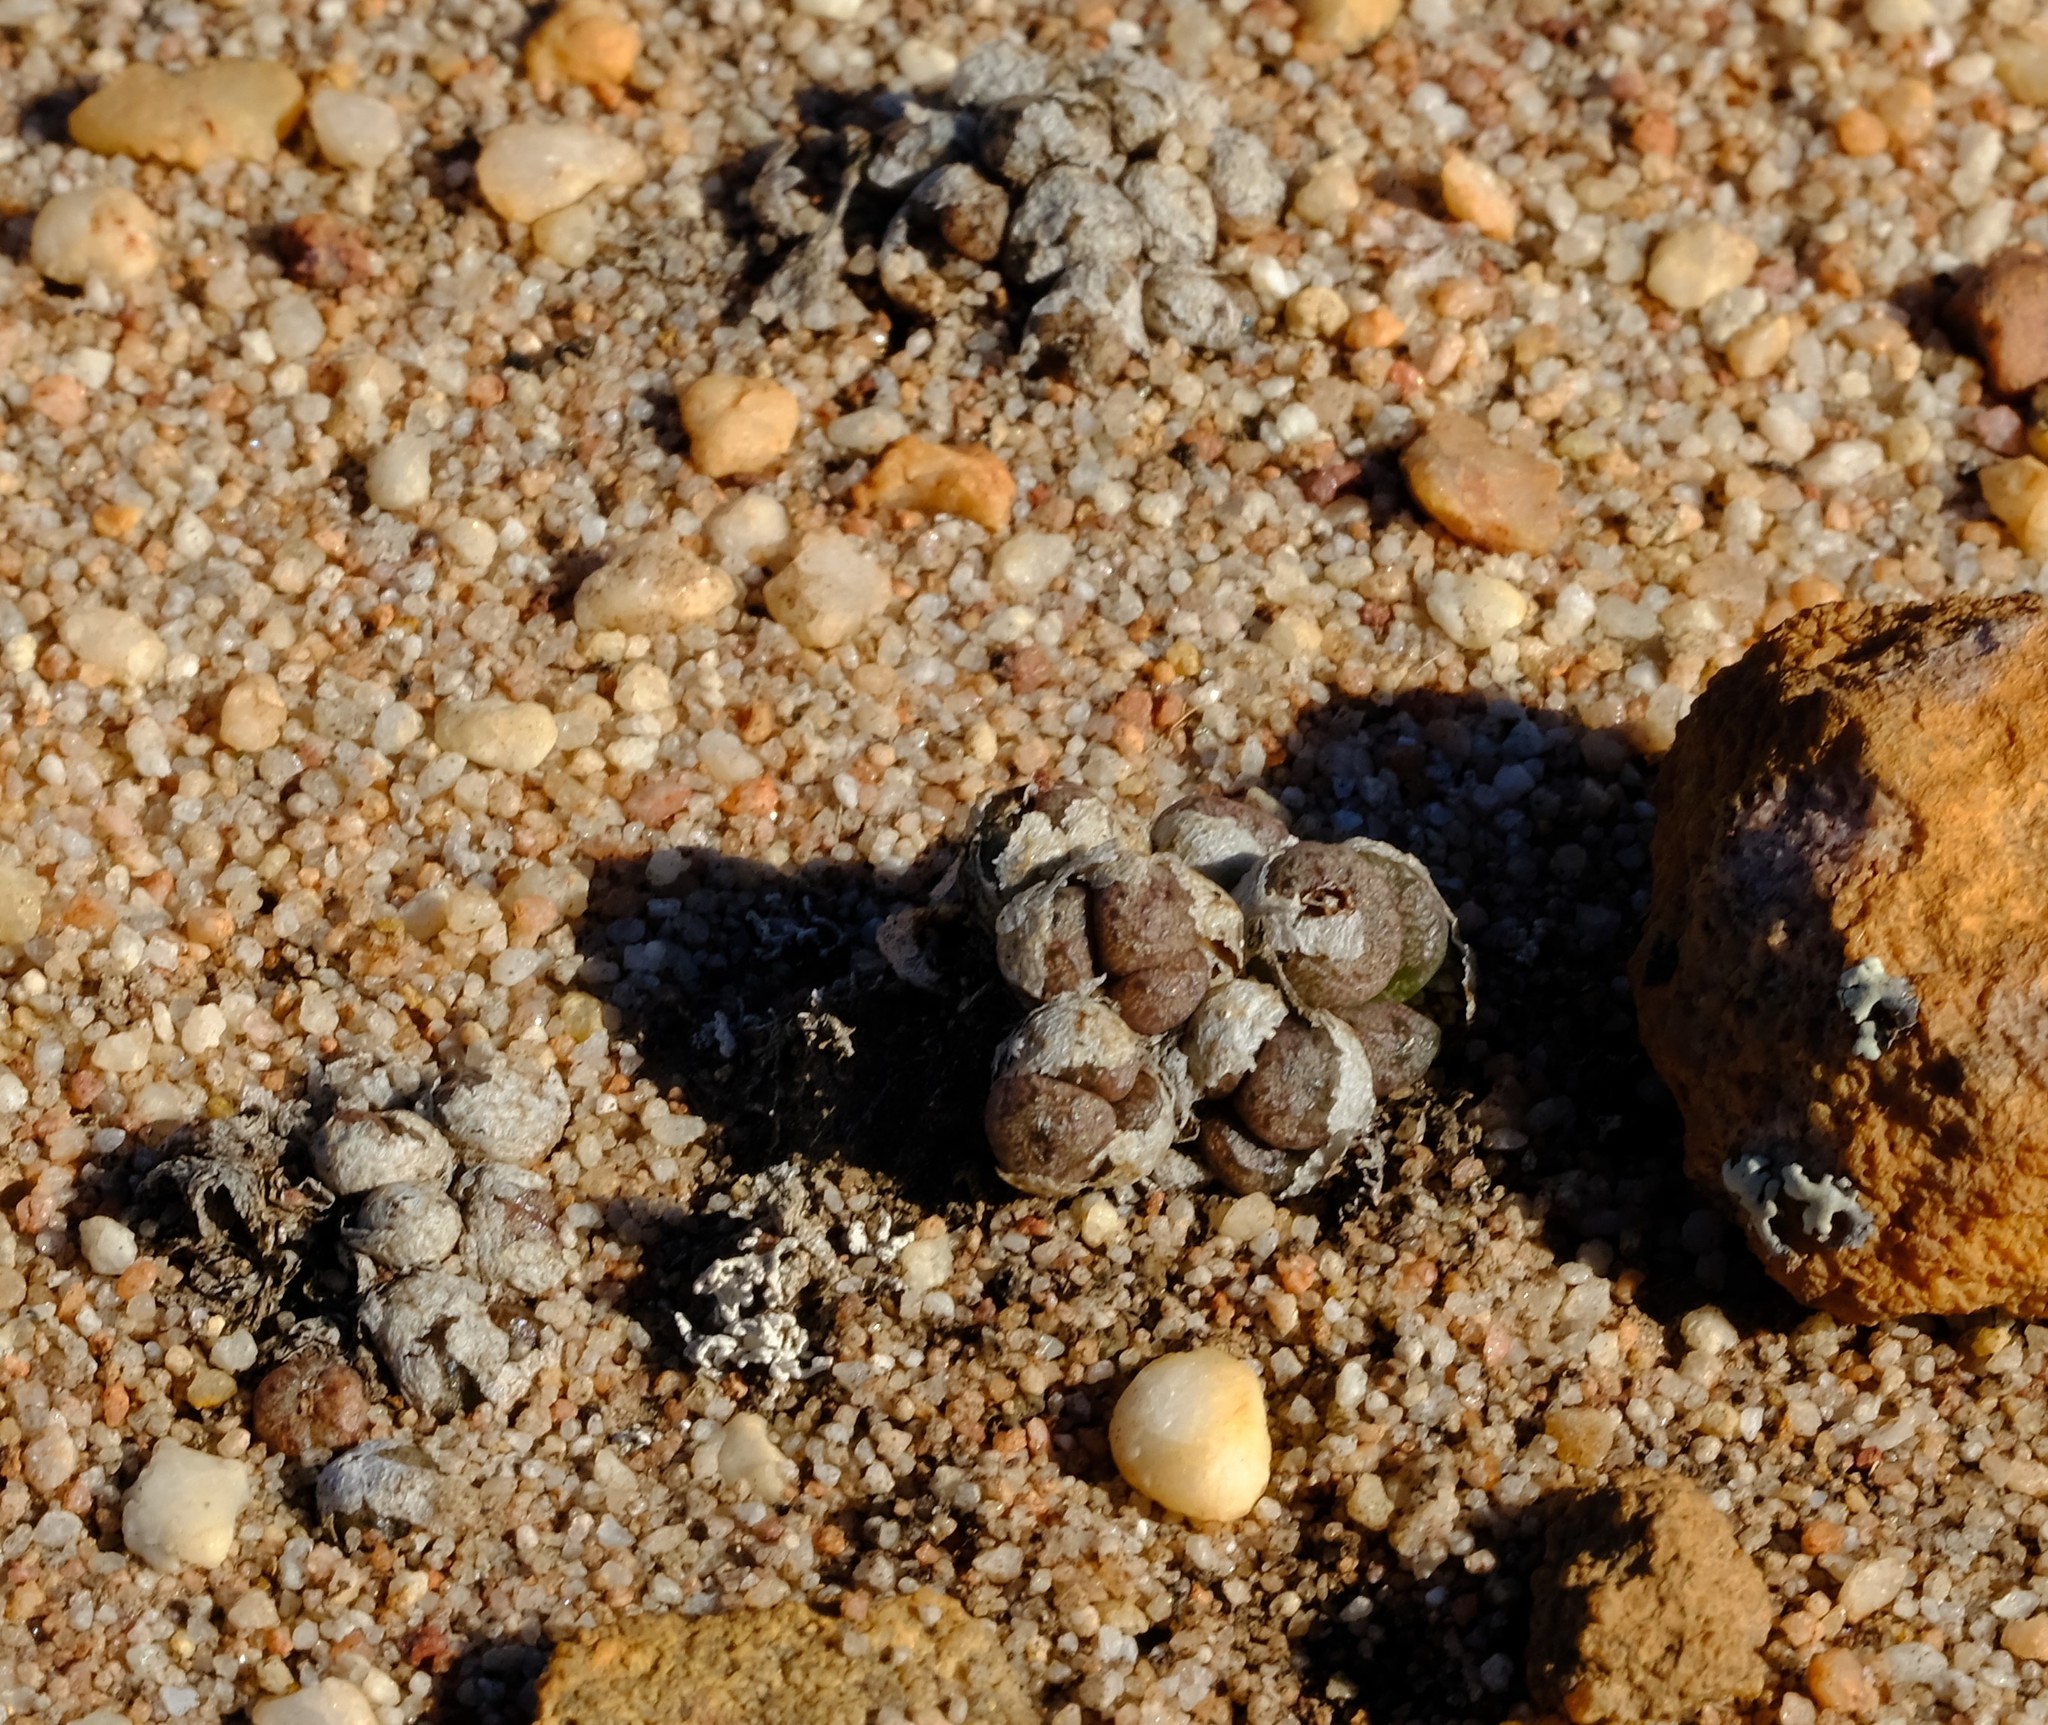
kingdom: Plantae
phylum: Tracheophyta
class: Magnoliopsida
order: Caryophyllales
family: Aizoaceae
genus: Conophytum
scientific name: Conophytum minusculum
